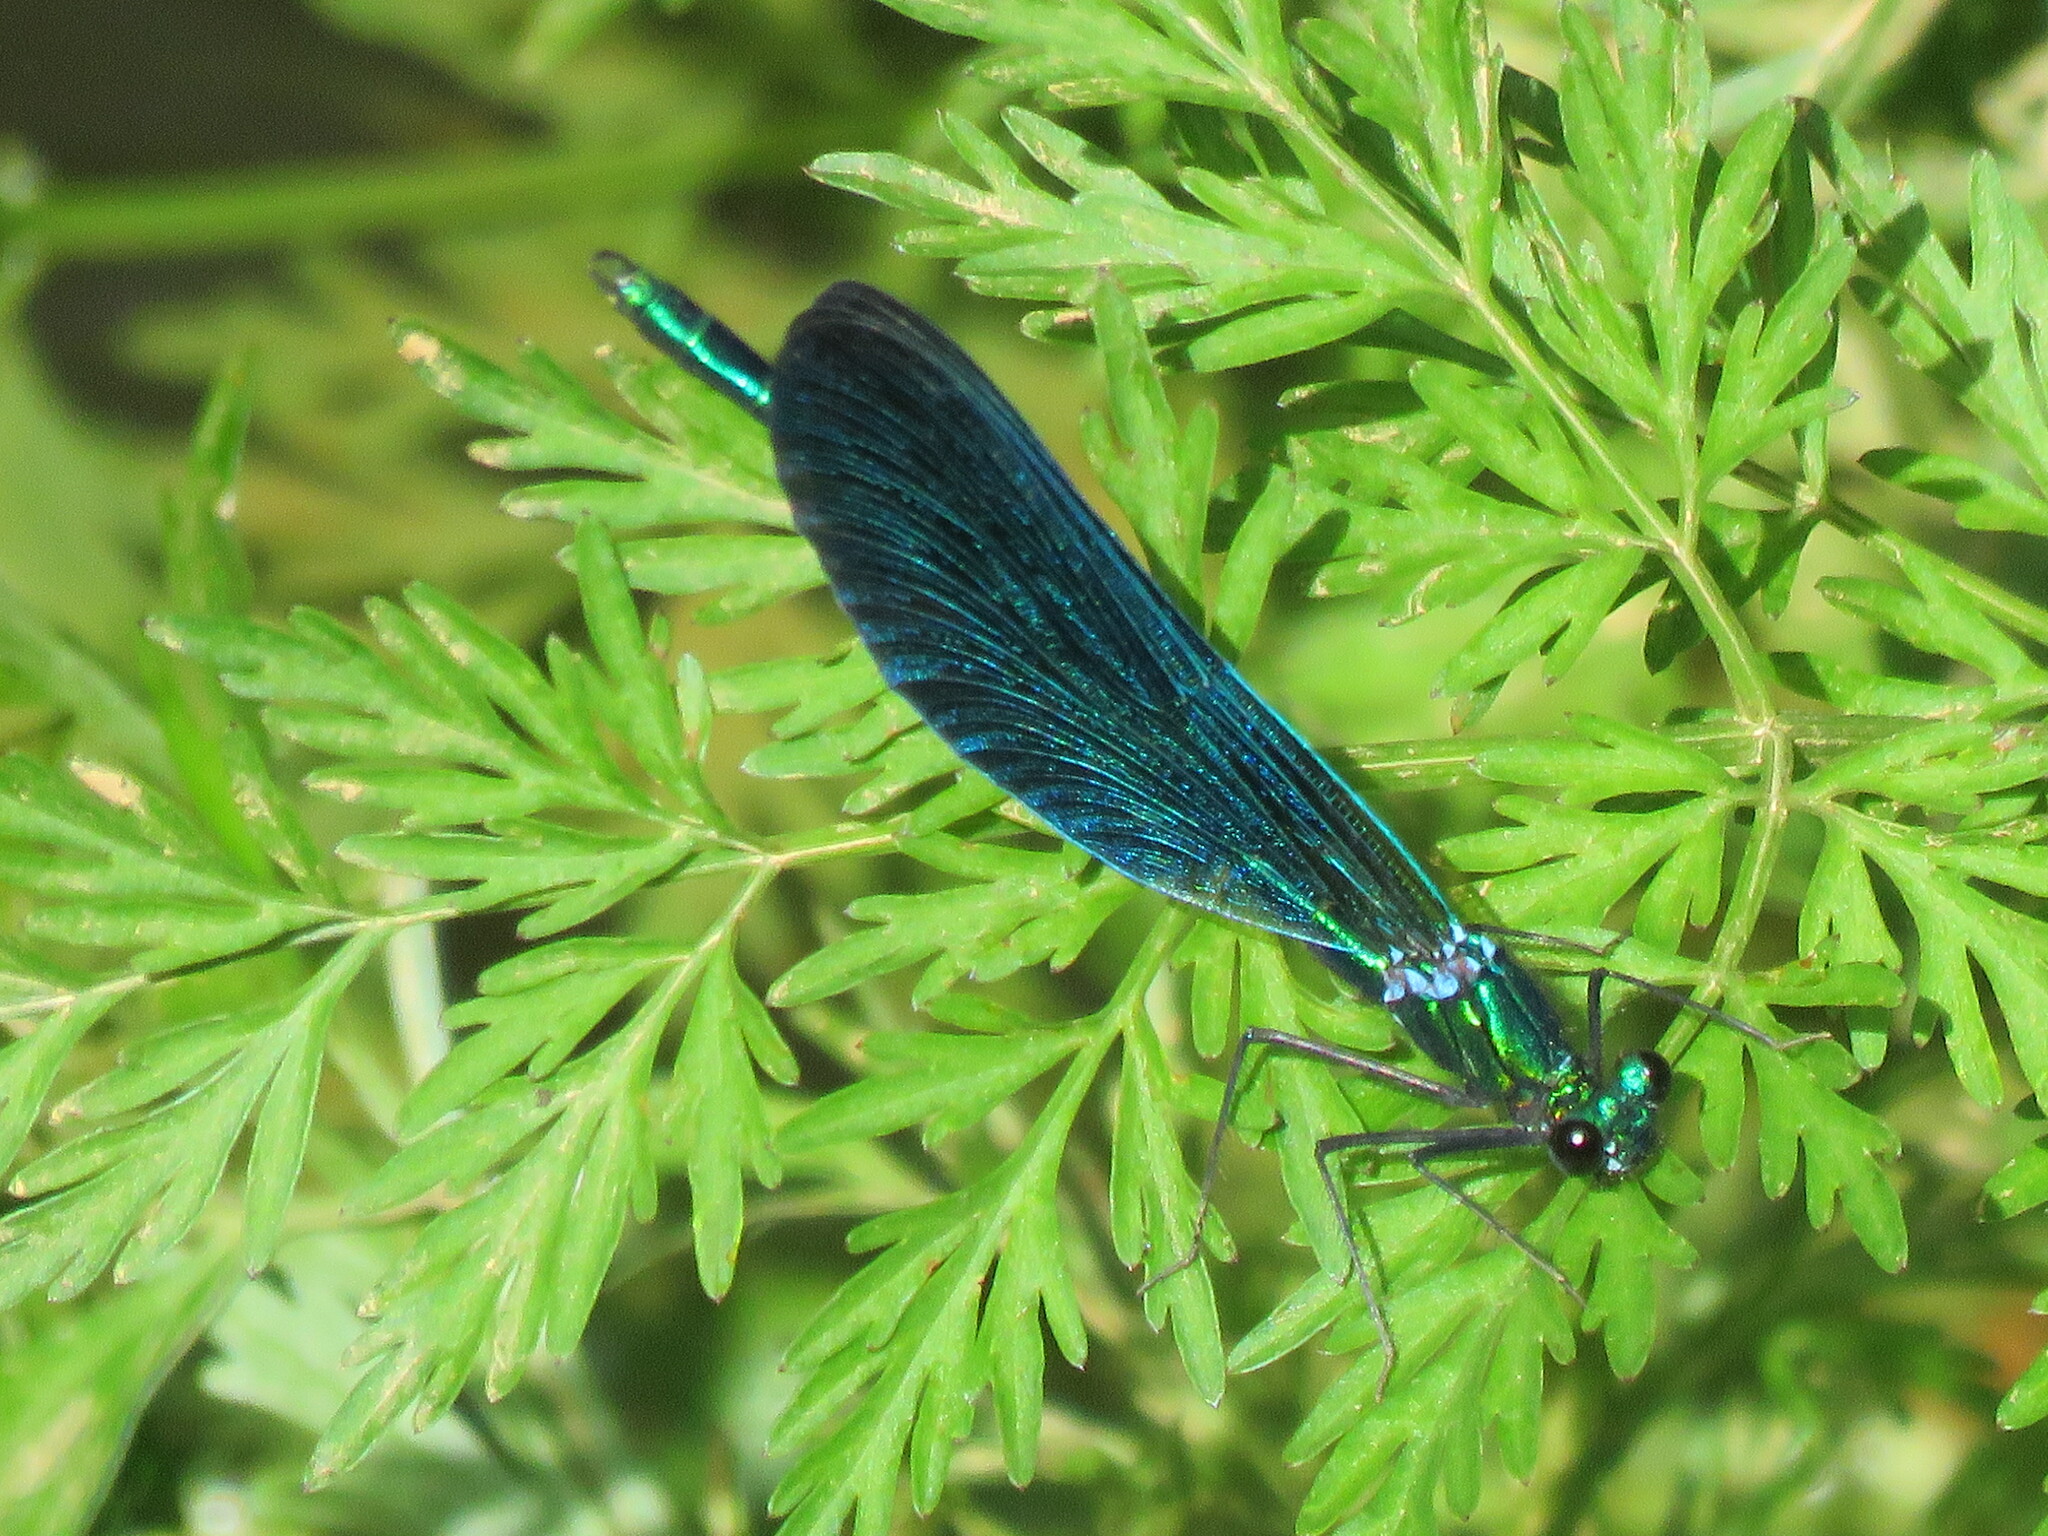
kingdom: Animalia
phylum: Arthropoda
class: Insecta
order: Odonata
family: Calopterygidae
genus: Calopteryx
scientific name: Calopteryx virgo
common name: Beautiful demoiselle
